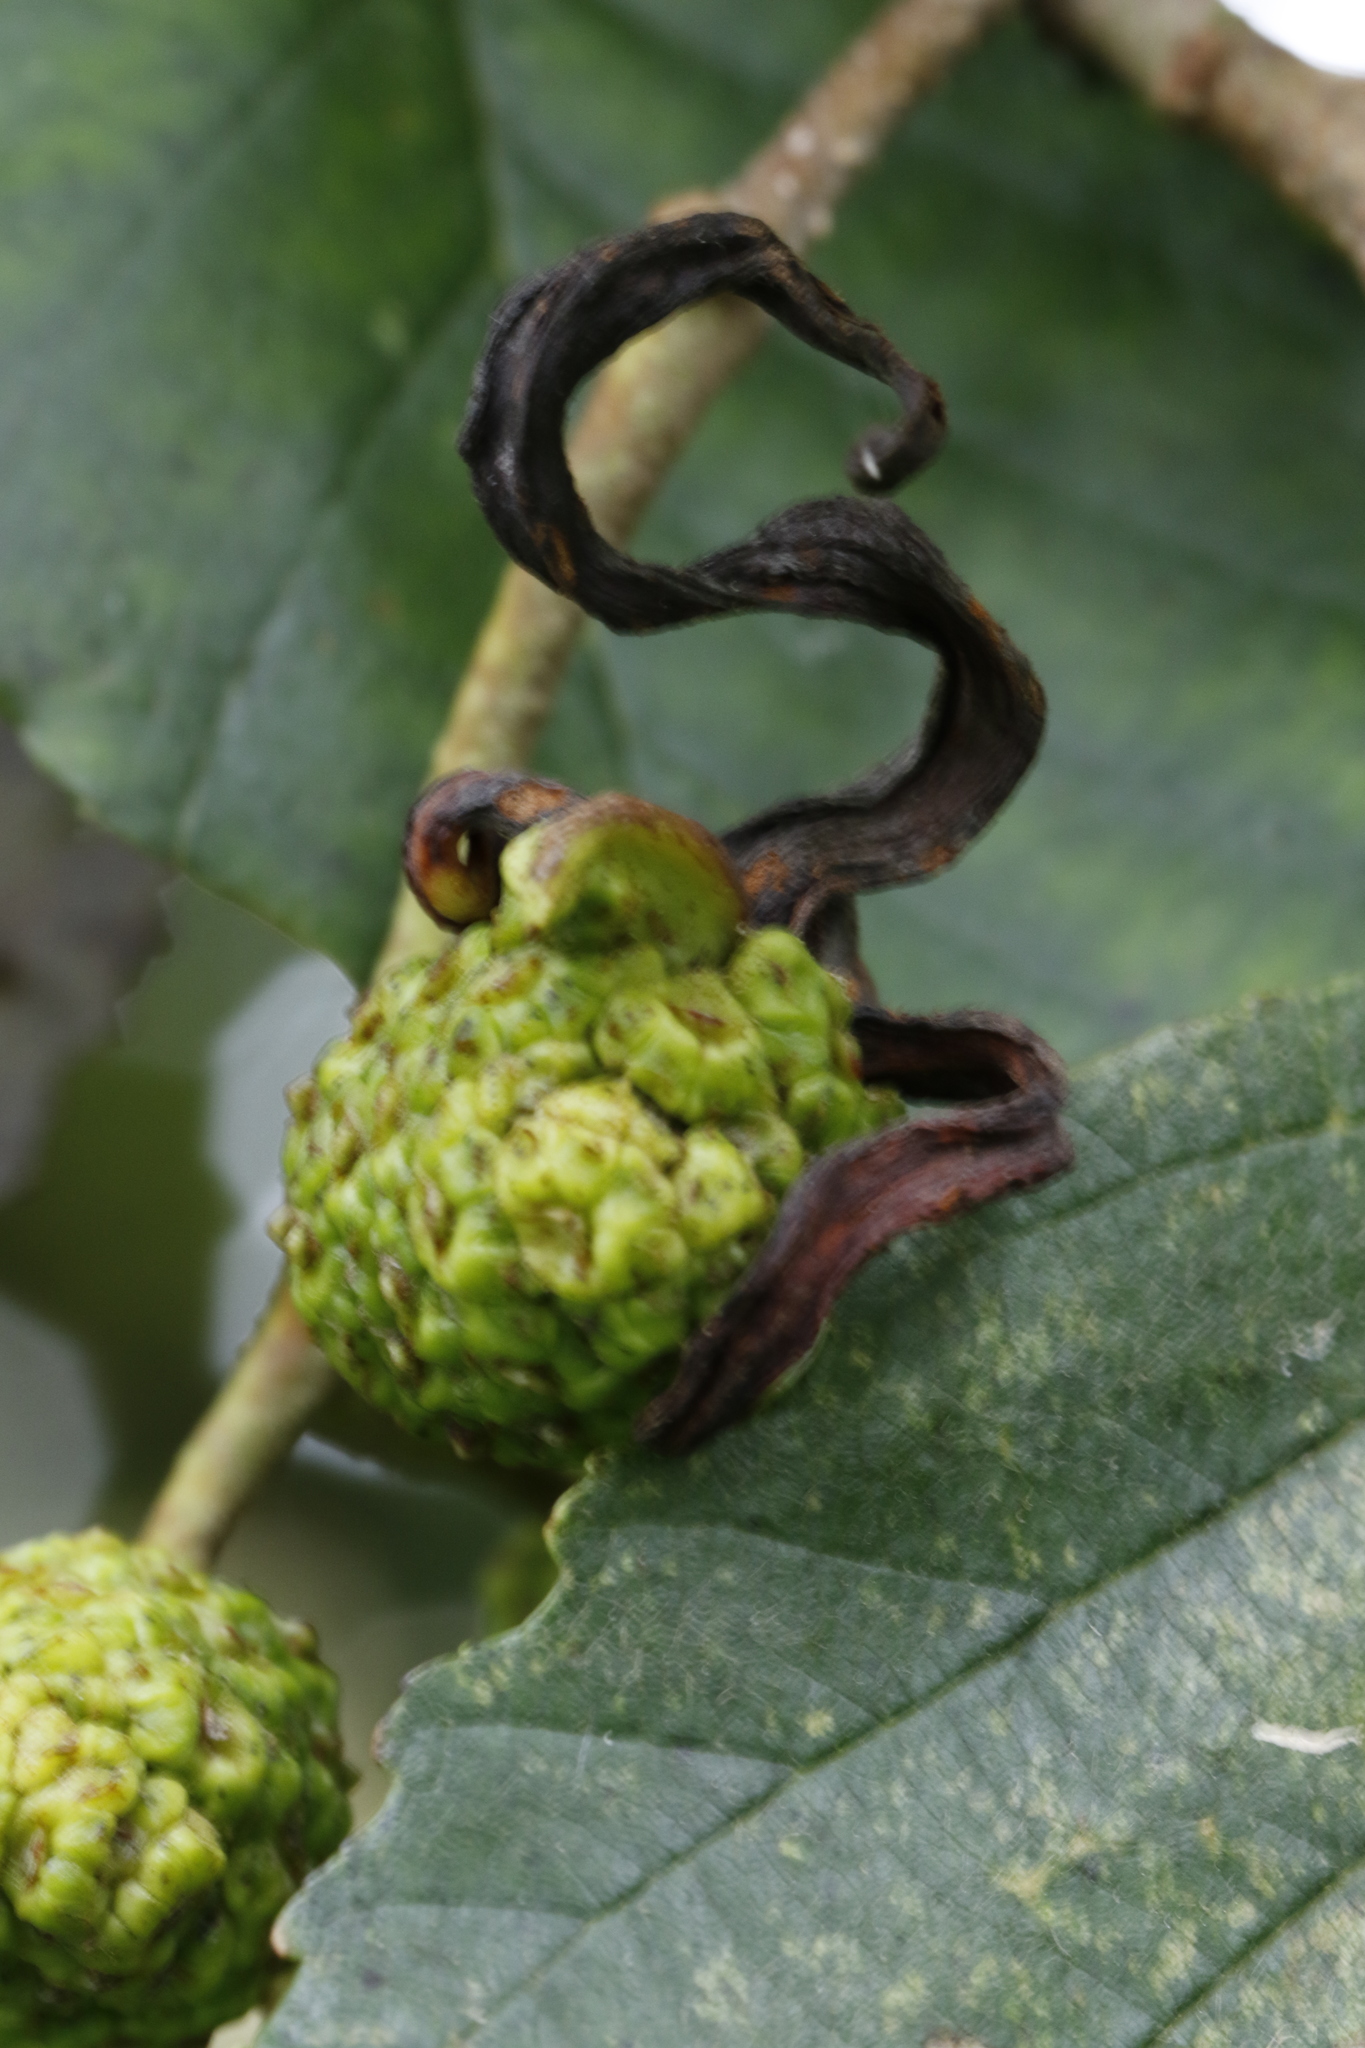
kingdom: Fungi
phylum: Ascomycota
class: Taphrinomycetes
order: Taphrinales
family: Taphrinaceae
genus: Taphrina
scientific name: Taphrina alni
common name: Alder tongue
